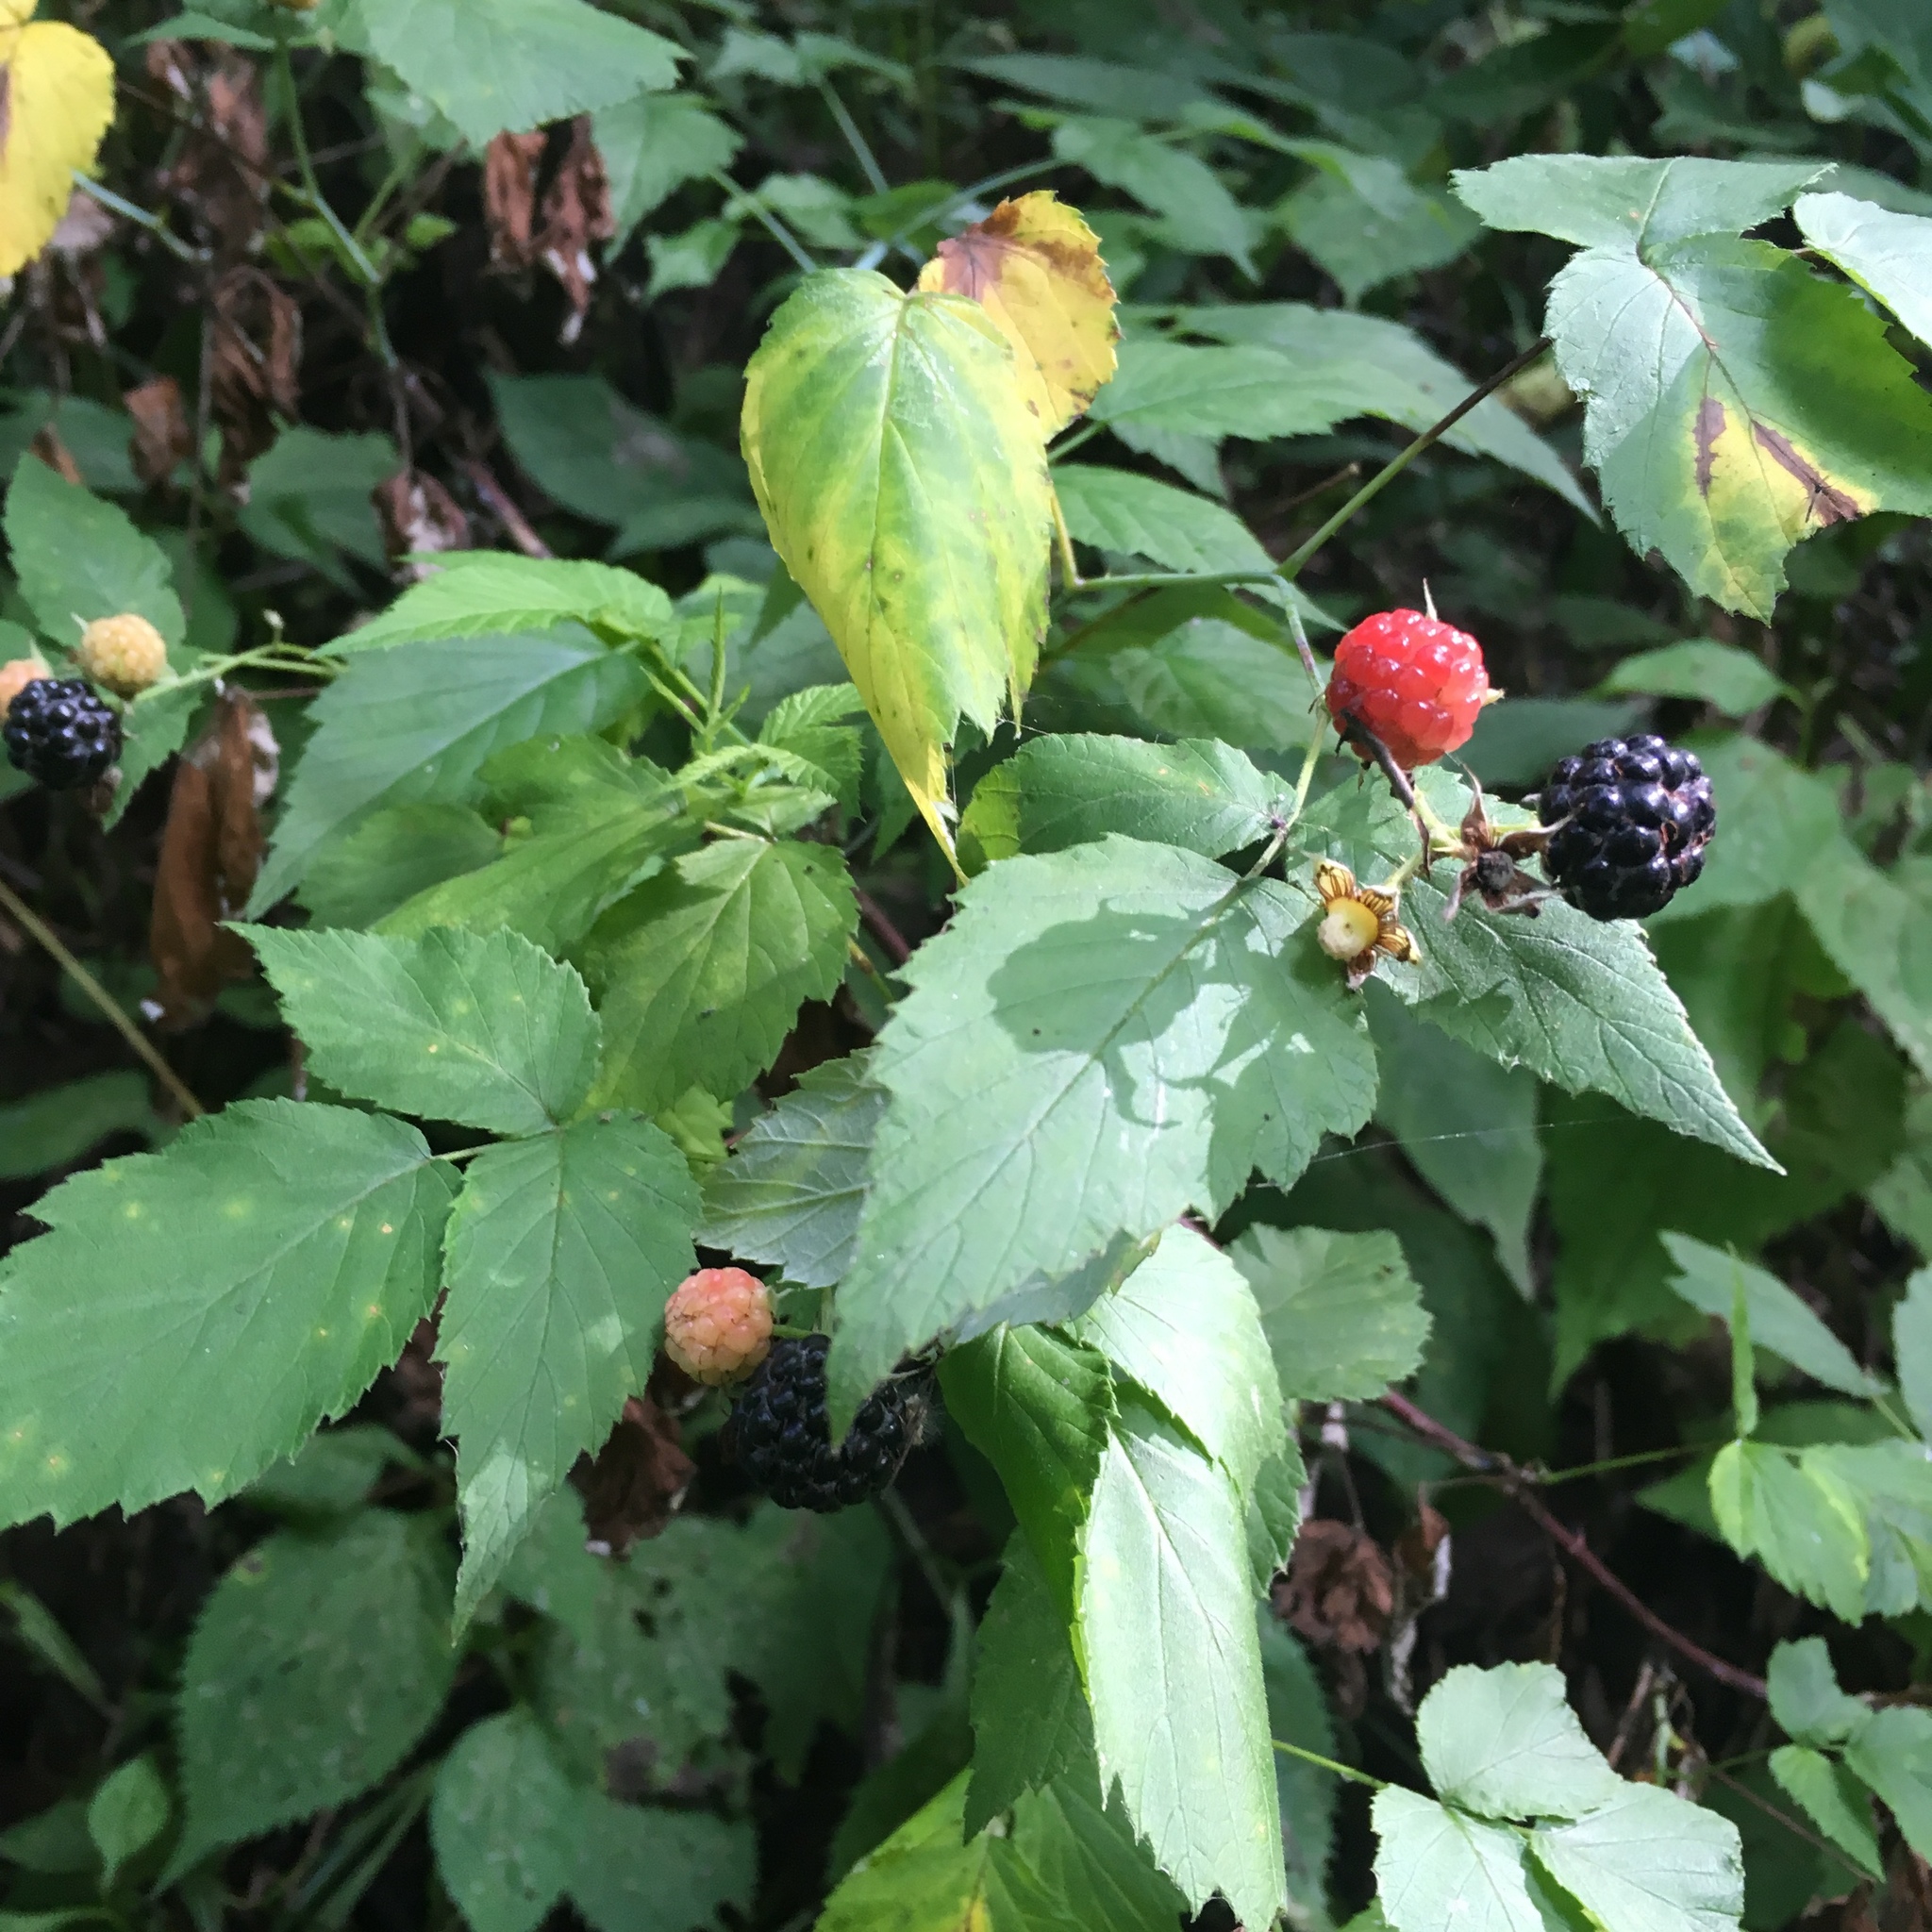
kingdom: Plantae
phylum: Tracheophyta
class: Magnoliopsida
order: Rosales
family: Rosaceae
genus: Rubus
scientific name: Rubus occidentalis
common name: Black raspberry
